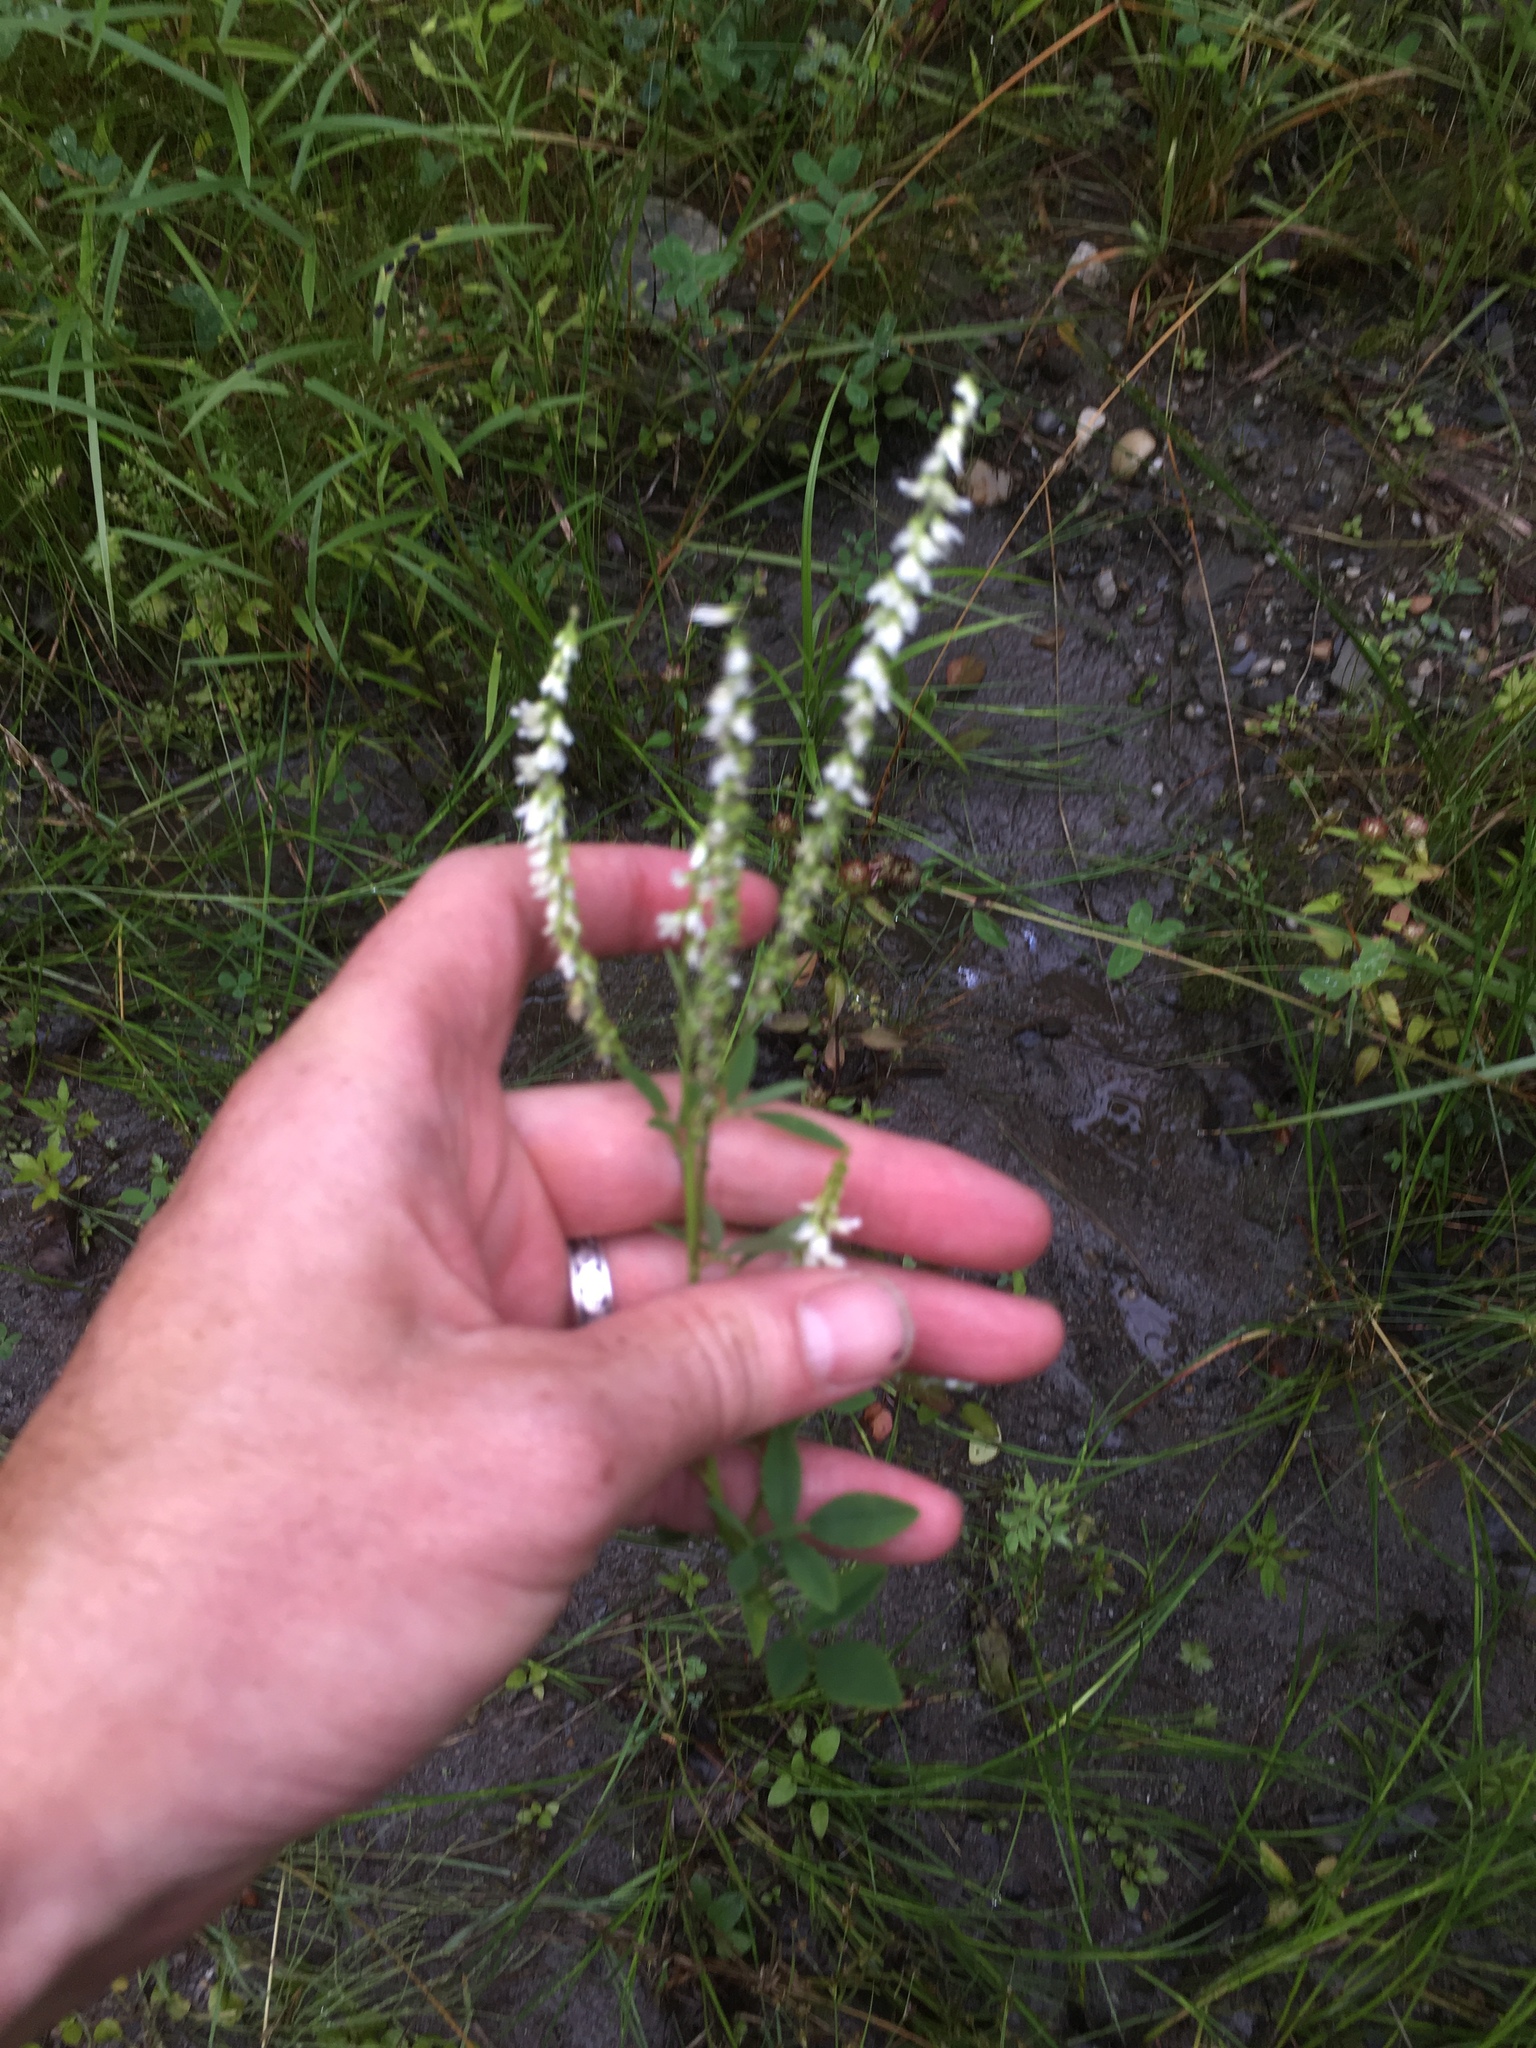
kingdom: Plantae
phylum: Tracheophyta
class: Magnoliopsida
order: Fabales
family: Fabaceae
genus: Melilotus
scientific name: Melilotus albus
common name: White melilot
